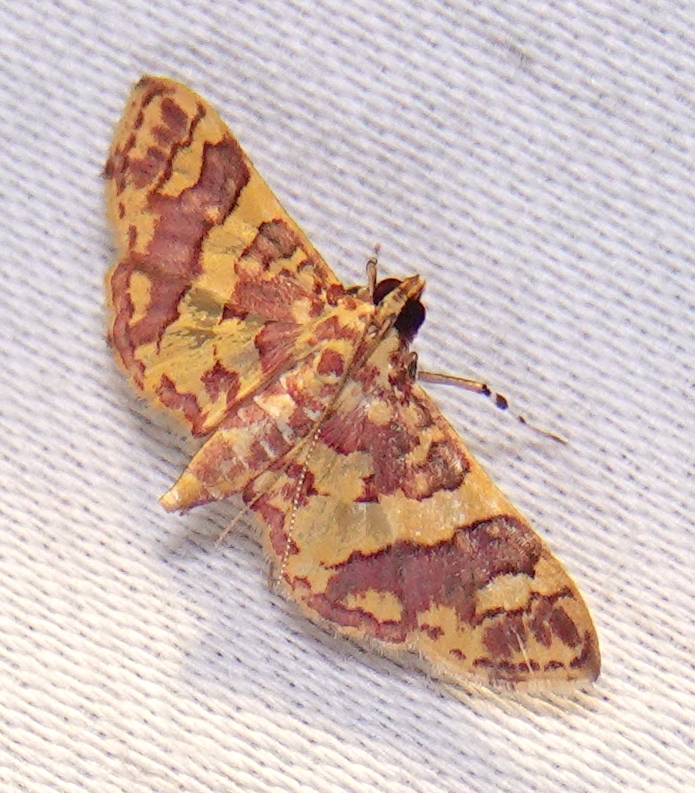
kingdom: Animalia
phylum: Arthropoda
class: Insecta
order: Lepidoptera
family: Crambidae
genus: Trithyris
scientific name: Trithyris Prenesta rubrocinctalis
